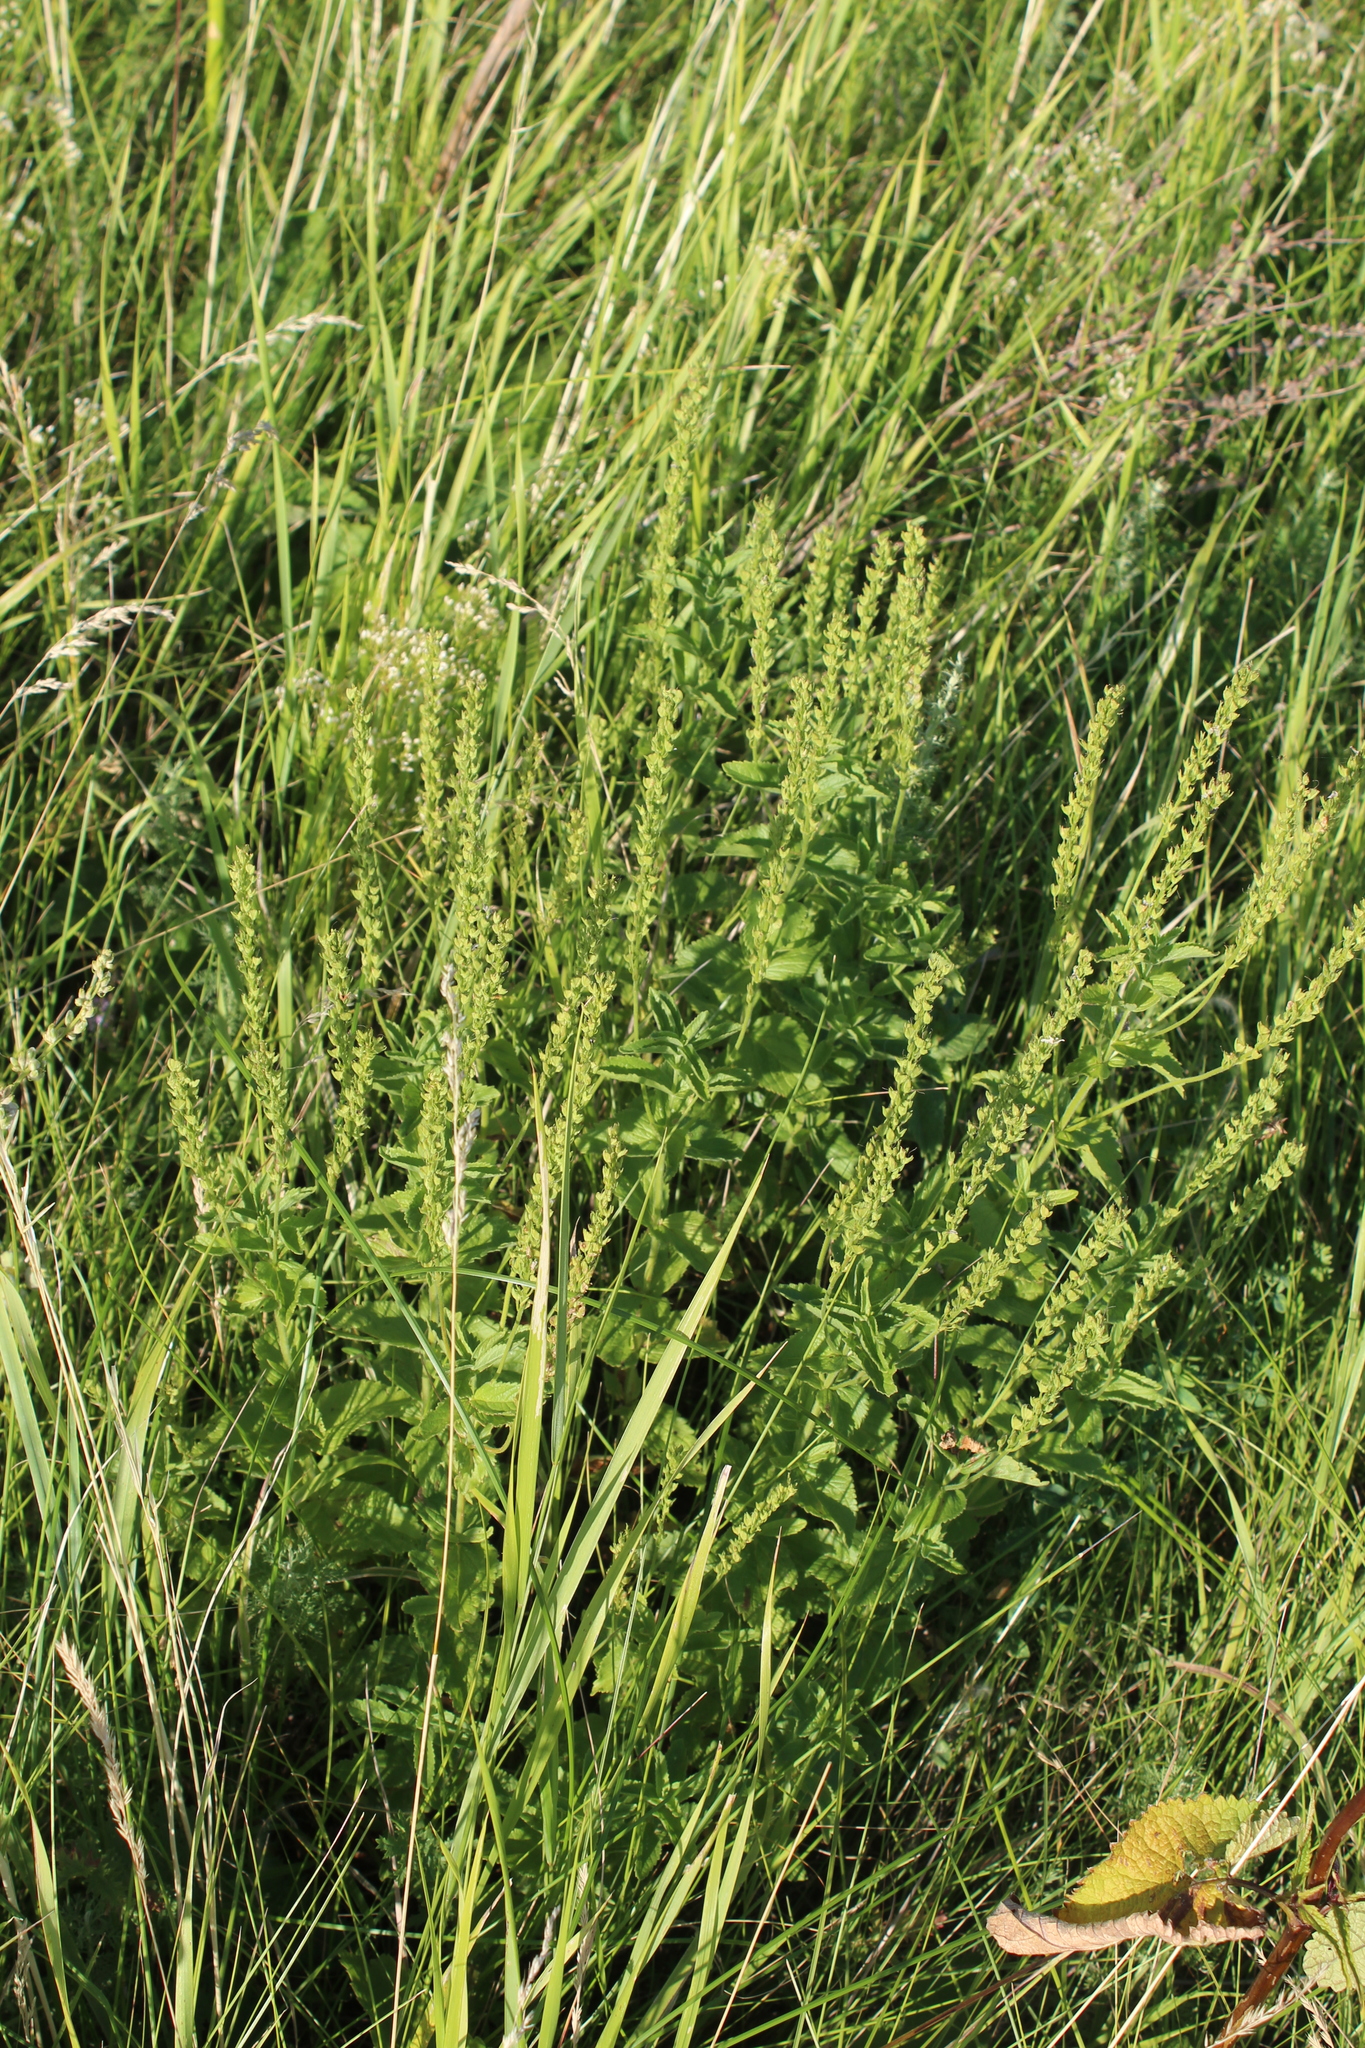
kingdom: Plantae
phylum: Tracheophyta
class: Magnoliopsida
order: Lamiales
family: Plantaginaceae
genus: Veronica
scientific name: Veronica teucrium
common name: Large speedwell
